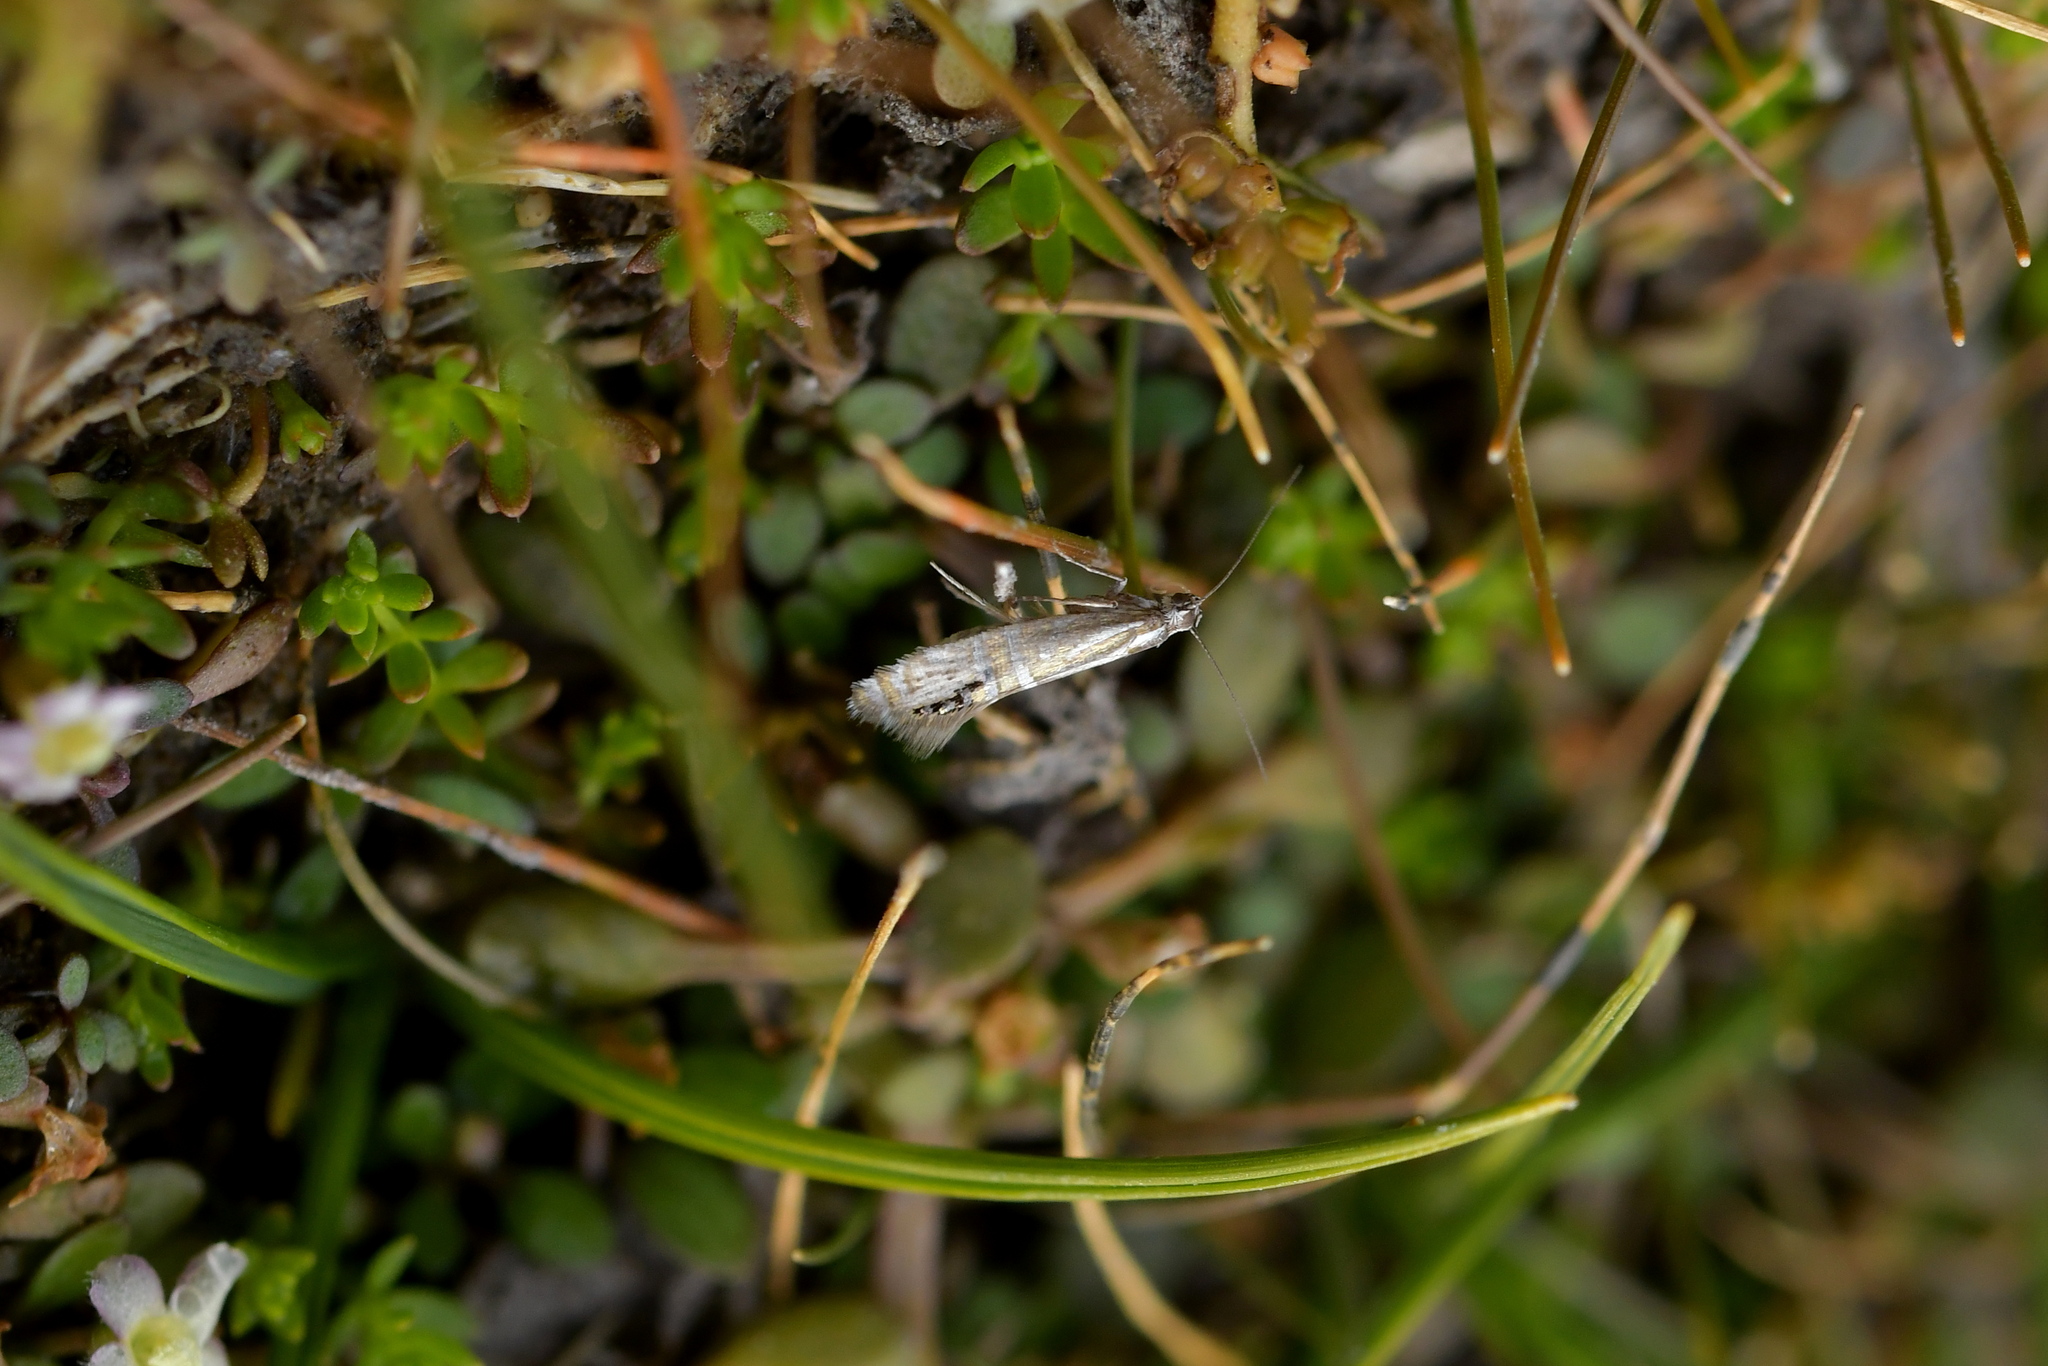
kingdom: Animalia
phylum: Arthropoda
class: Insecta
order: Lepidoptera
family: Glyphipterigidae
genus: Glyphipterix
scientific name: Glyphipterix triselena
